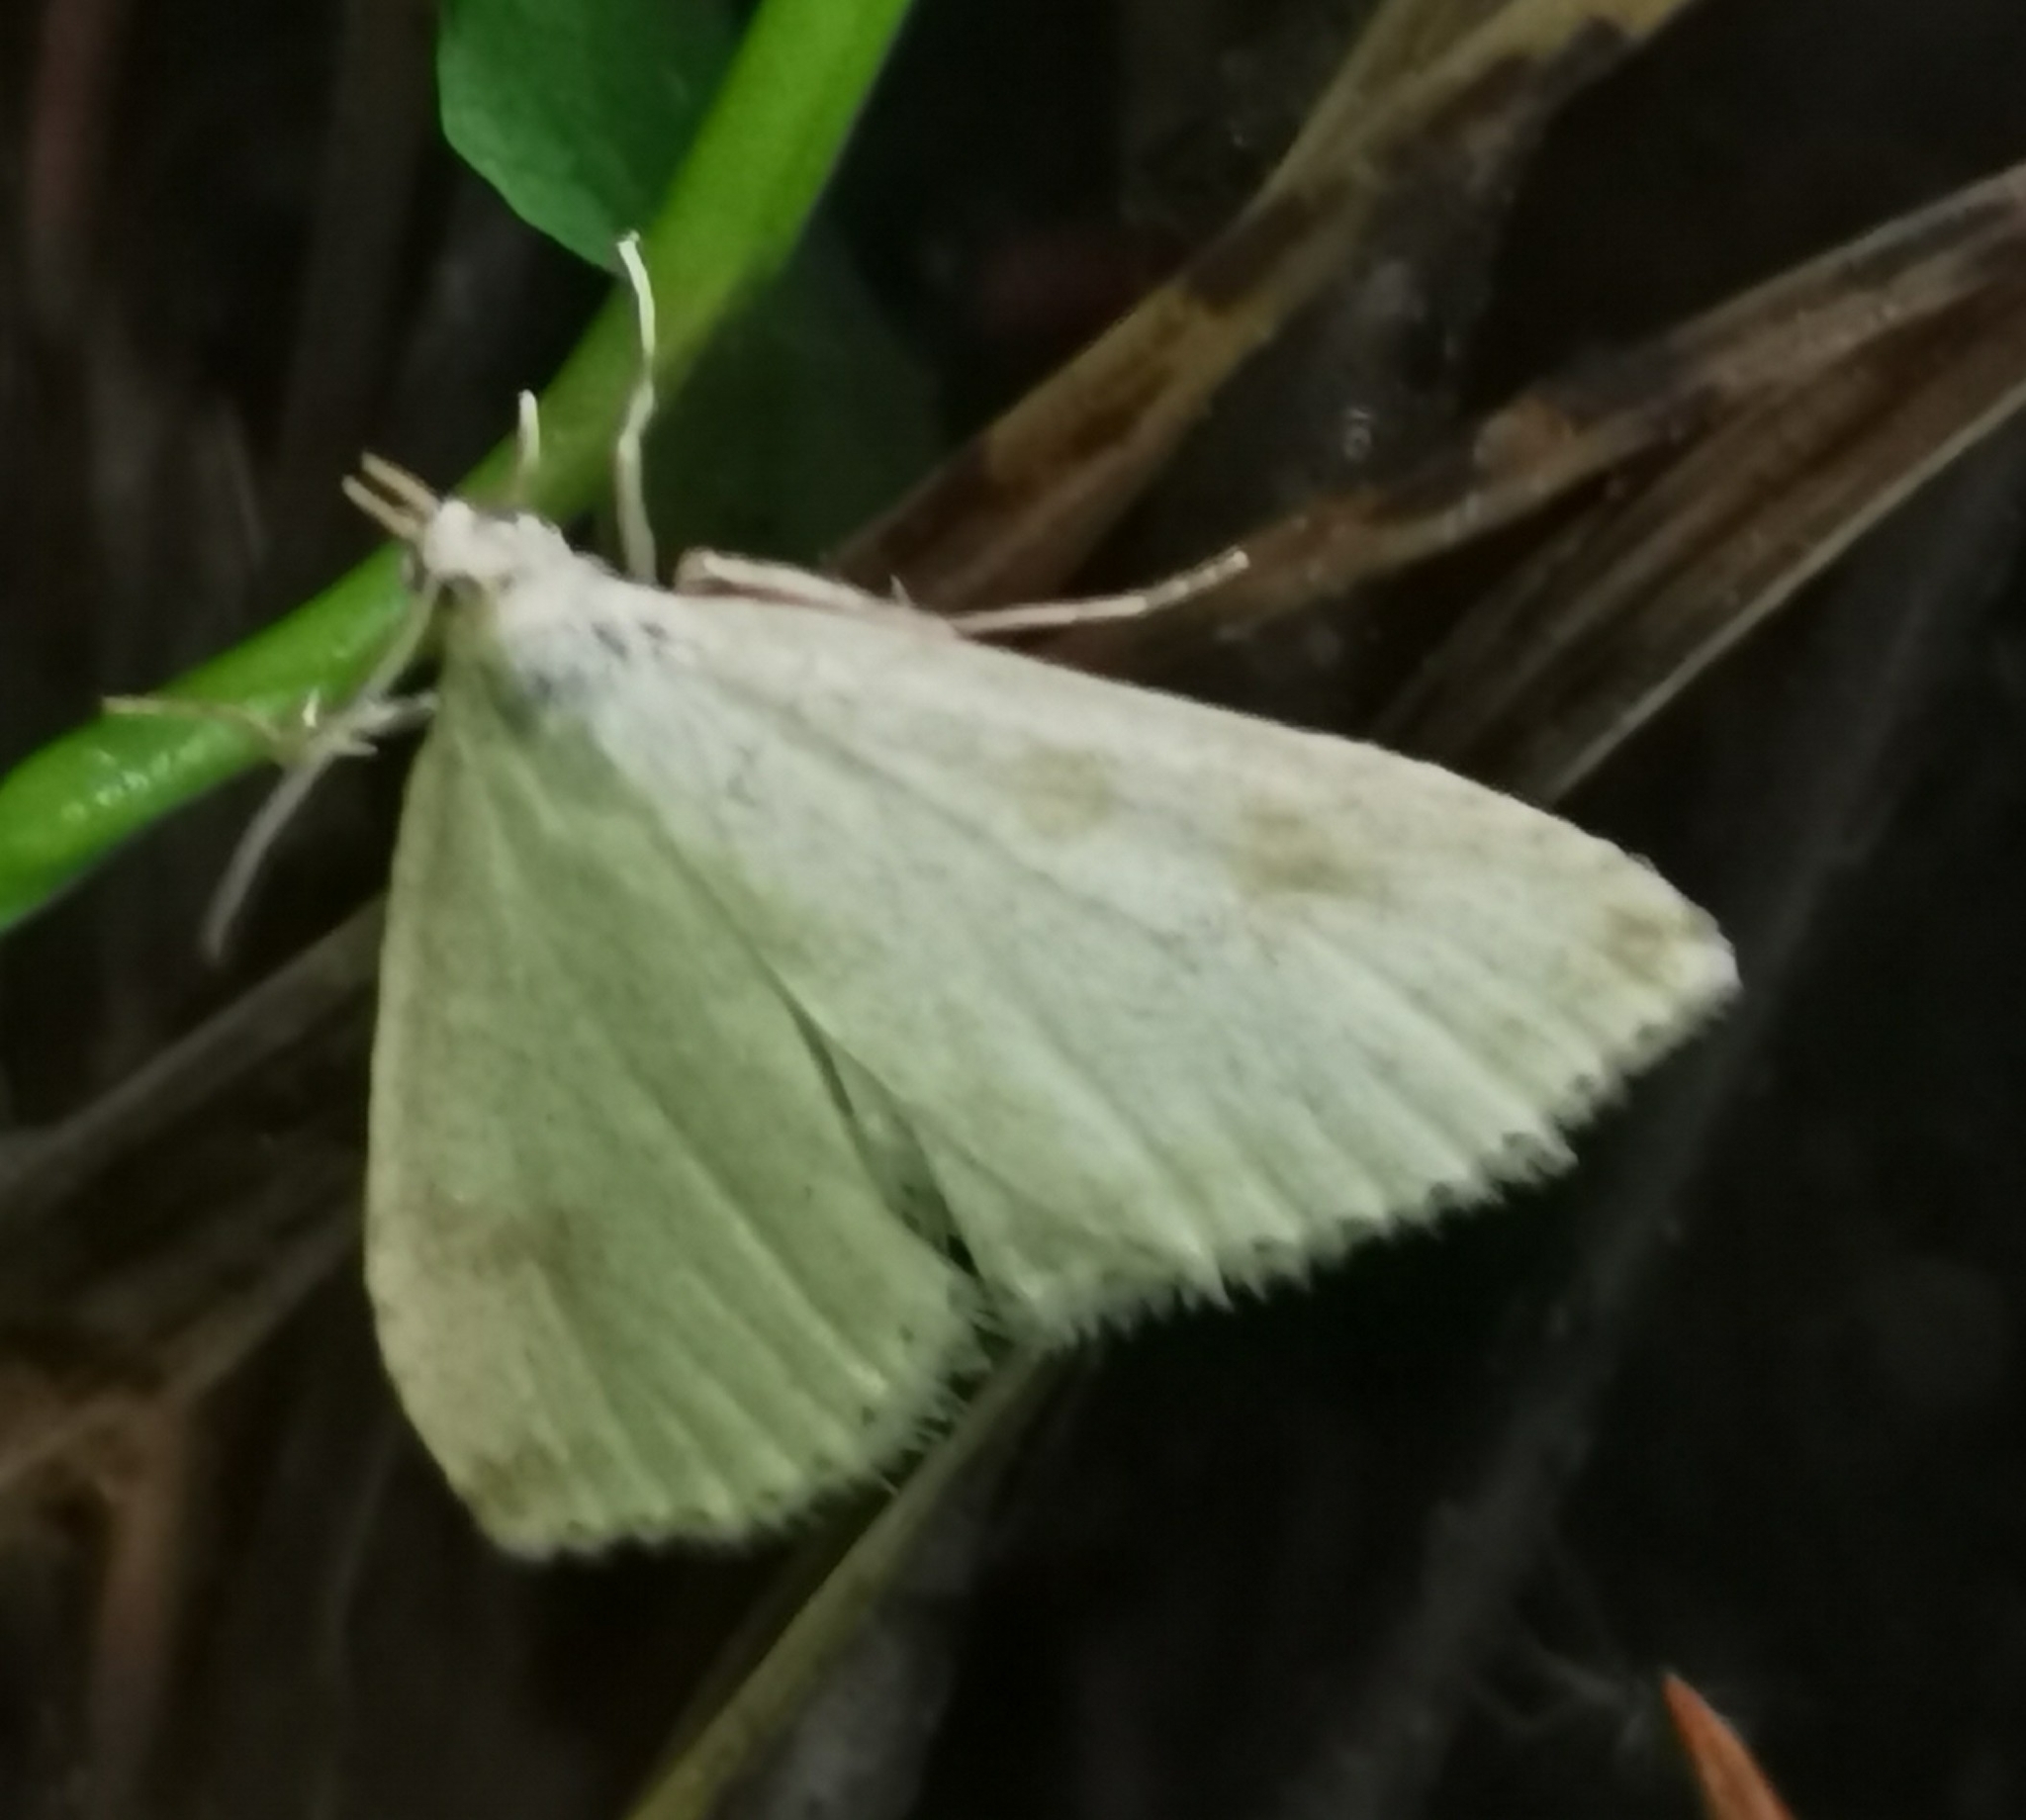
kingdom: Animalia
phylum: Arthropoda
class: Insecta
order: Lepidoptera
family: Crambidae
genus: Udea
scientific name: Udea decrepitalis
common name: Scotch pearl
